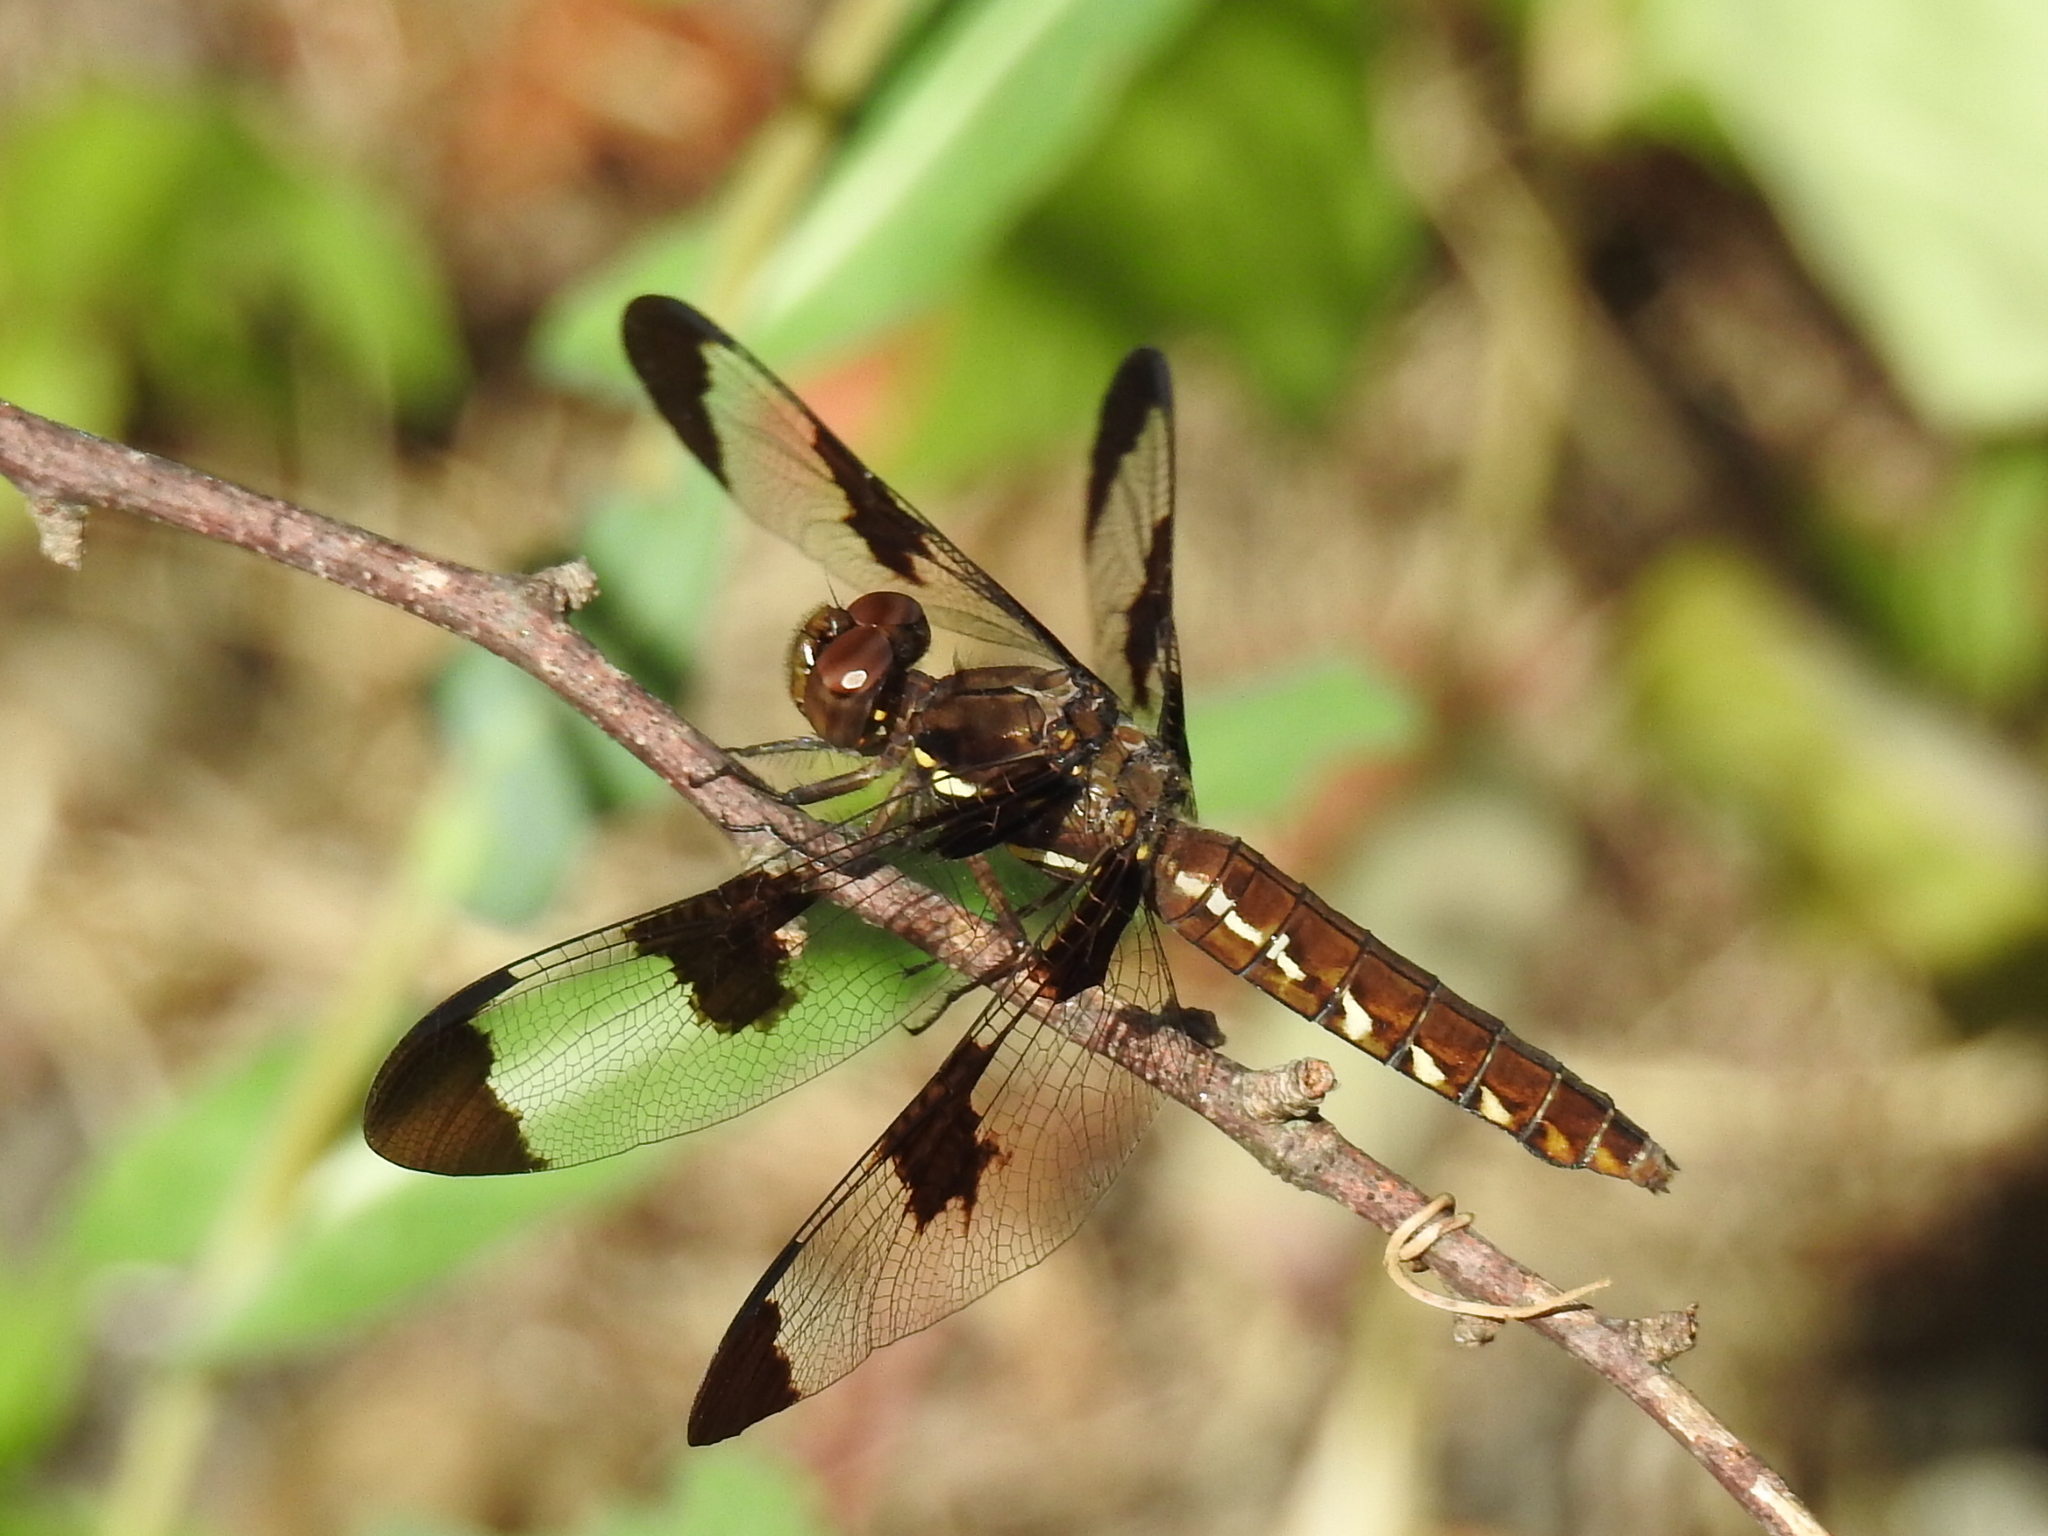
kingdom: Animalia
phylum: Arthropoda
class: Insecta
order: Odonata
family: Libellulidae
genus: Plathemis
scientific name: Plathemis lydia
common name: Common whitetail
